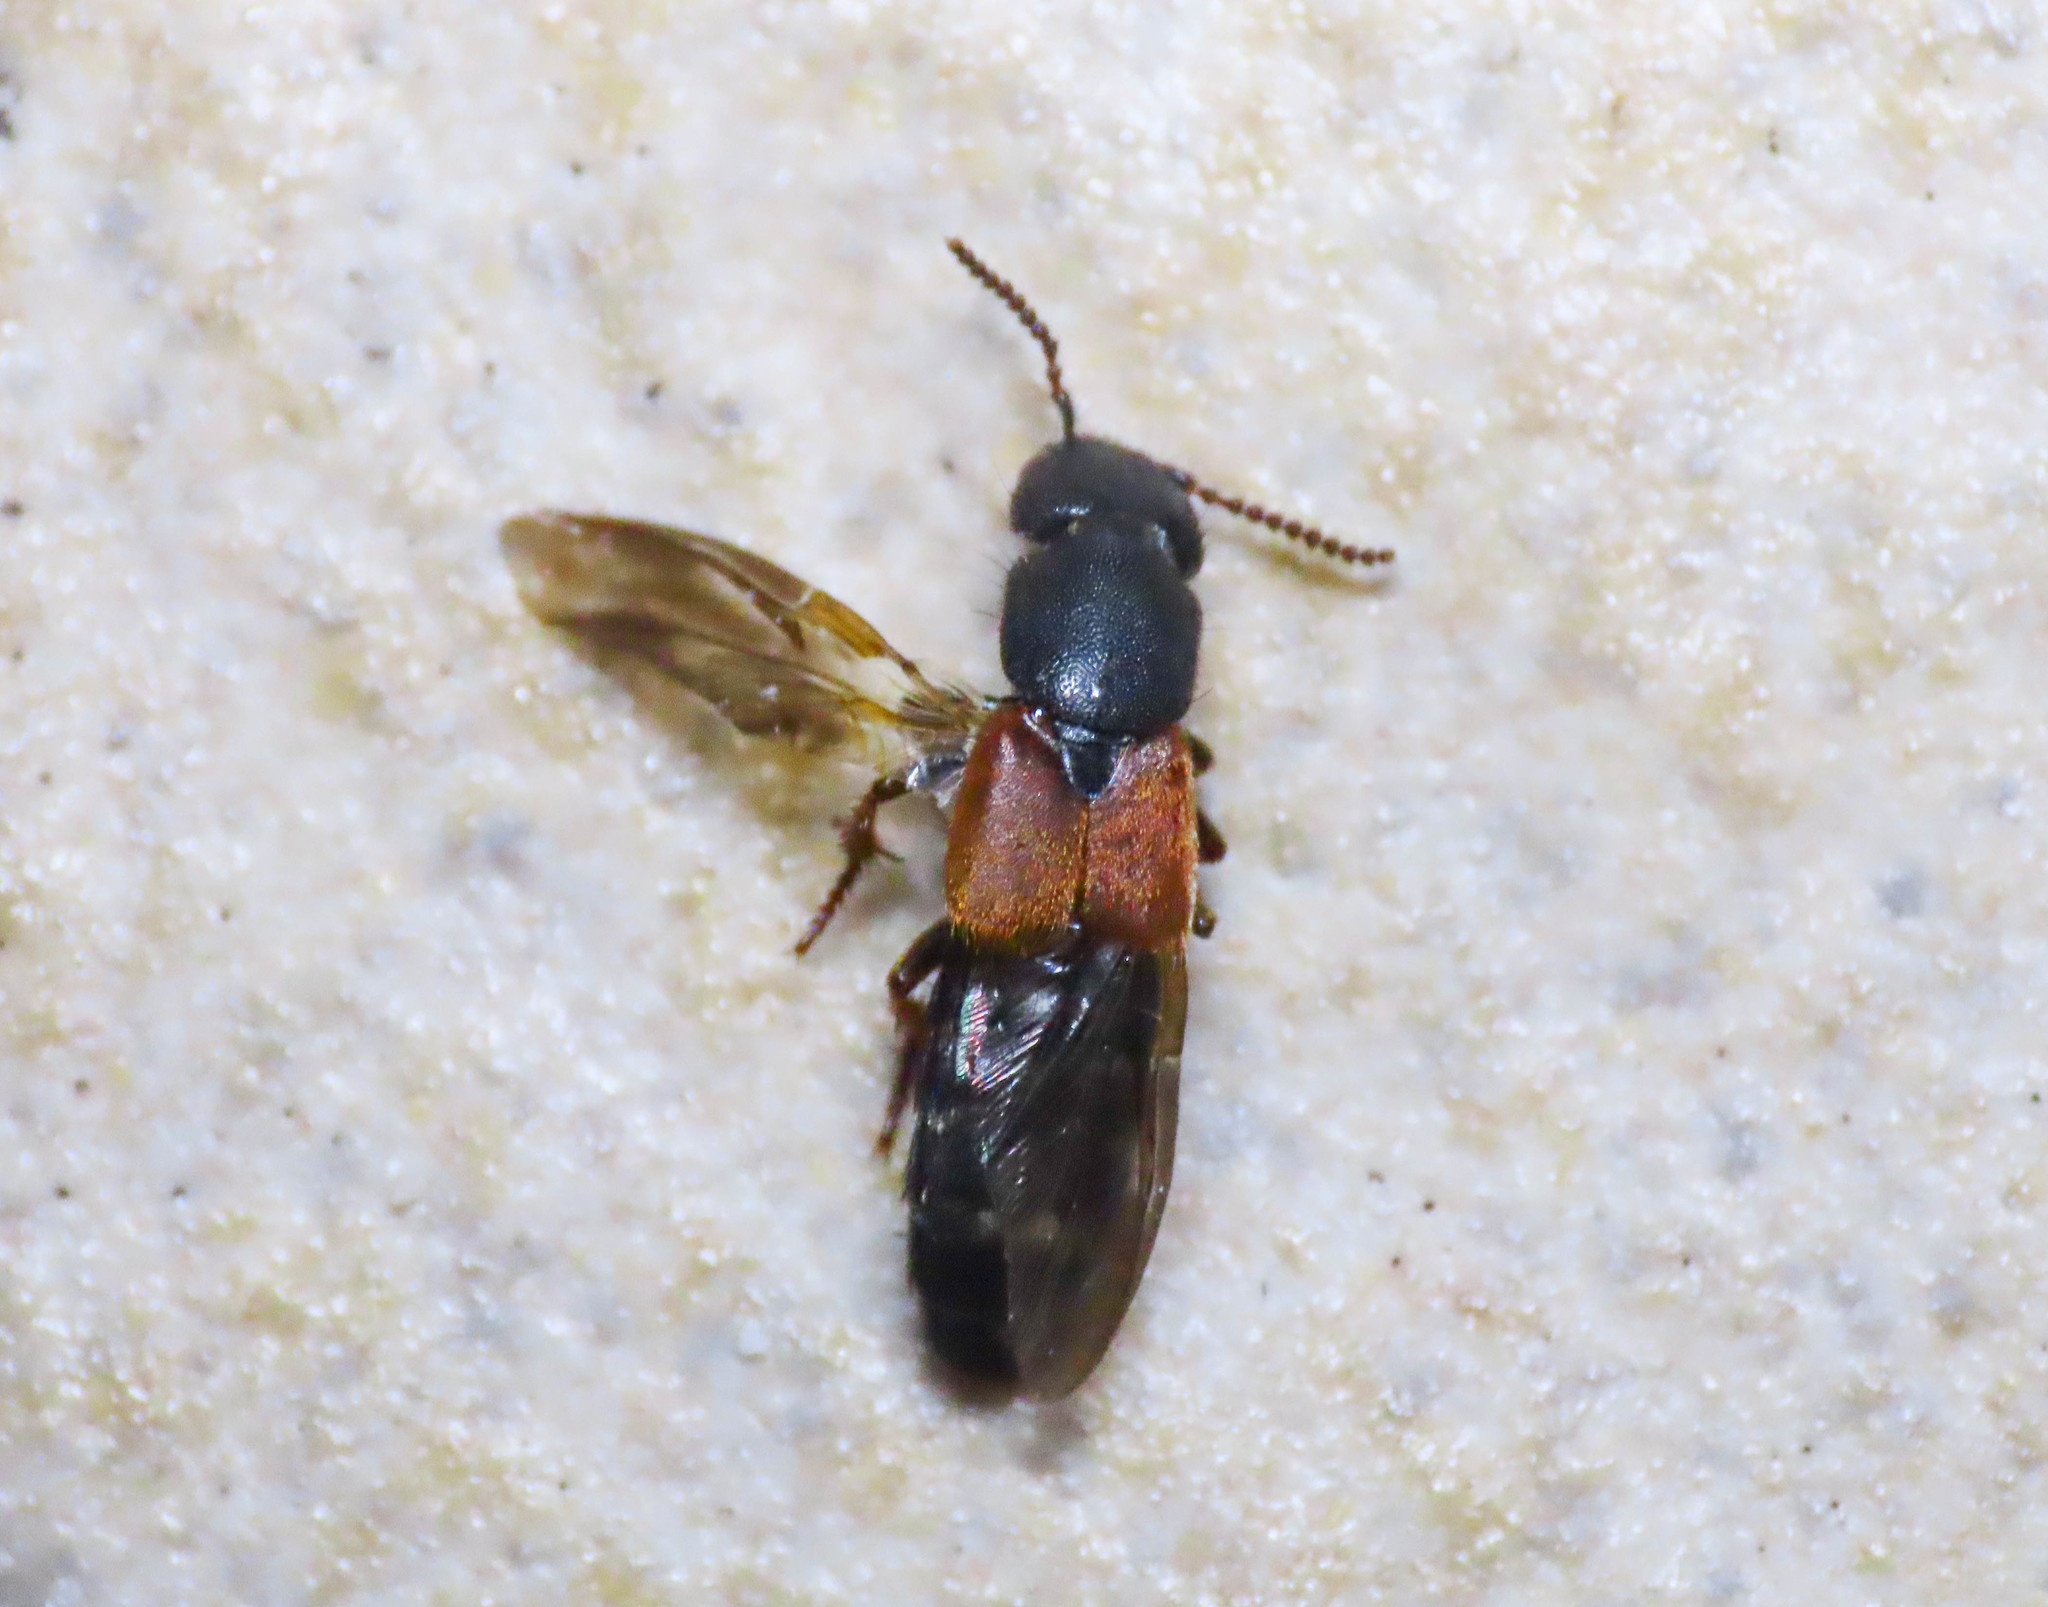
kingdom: Animalia
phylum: Arthropoda
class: Insecta
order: Coleoptera
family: Staphylinidae
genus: Platydracus
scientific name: Platydracus stercorarius
